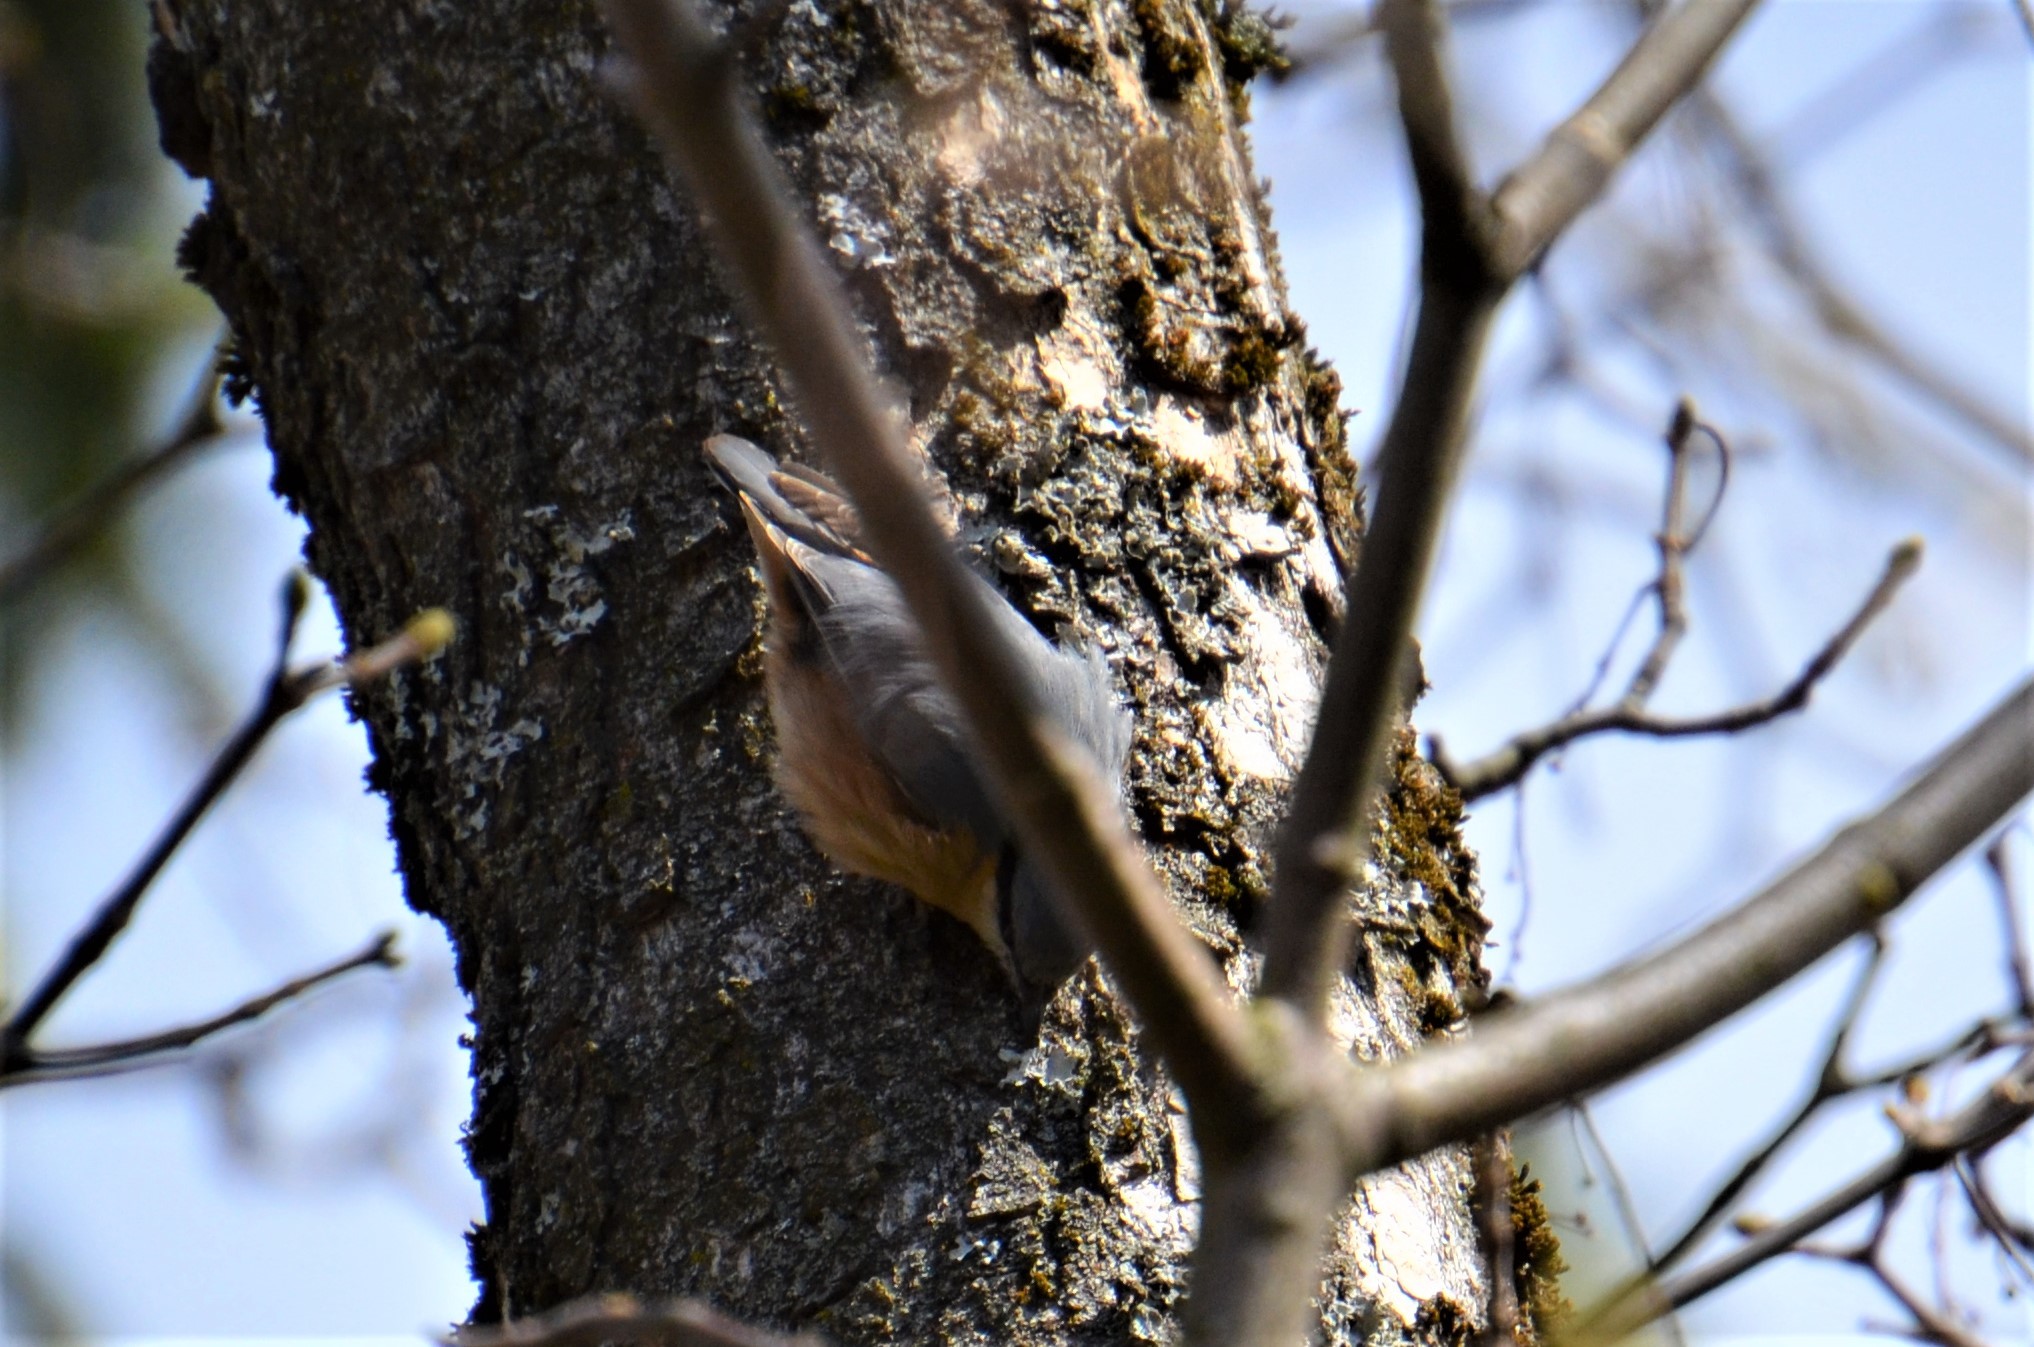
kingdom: Animalia
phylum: Chordata
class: Aves
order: Passeriformes
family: Sittidae
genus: Sitta
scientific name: Sitta europaea
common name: Eurasian nuthatch
